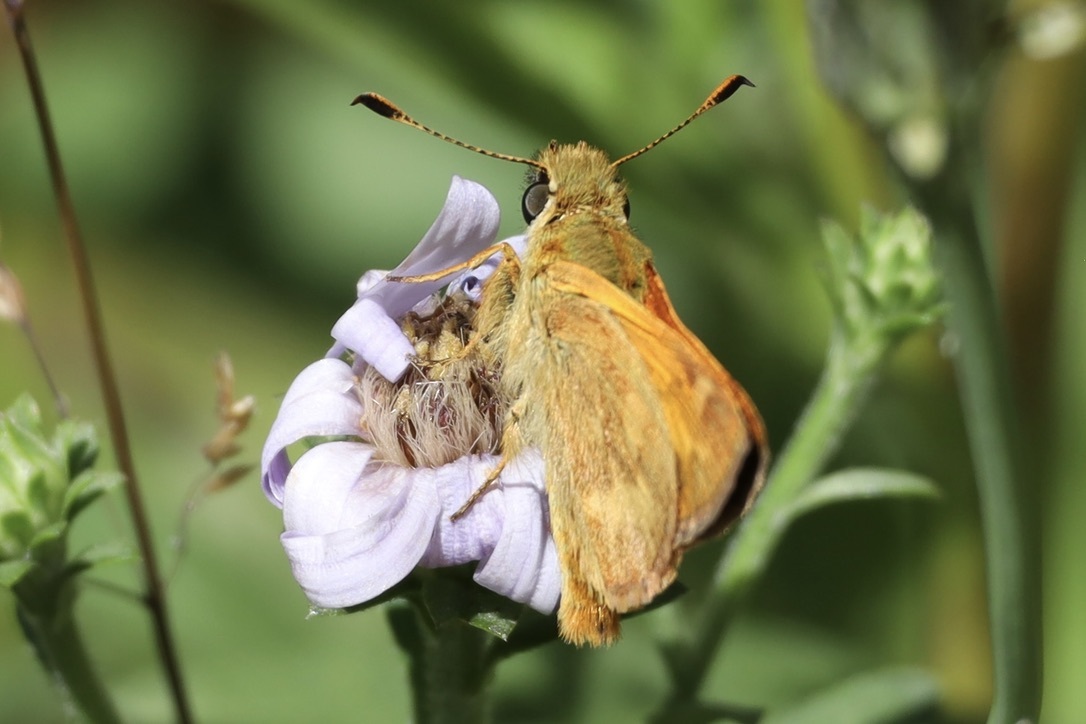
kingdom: Animalia
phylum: Arthropoda
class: Insecta
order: Lepidoptera
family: Hesperiidae
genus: Ochlodes
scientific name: Ochlodes sylvanoides
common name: Woodland skipper
